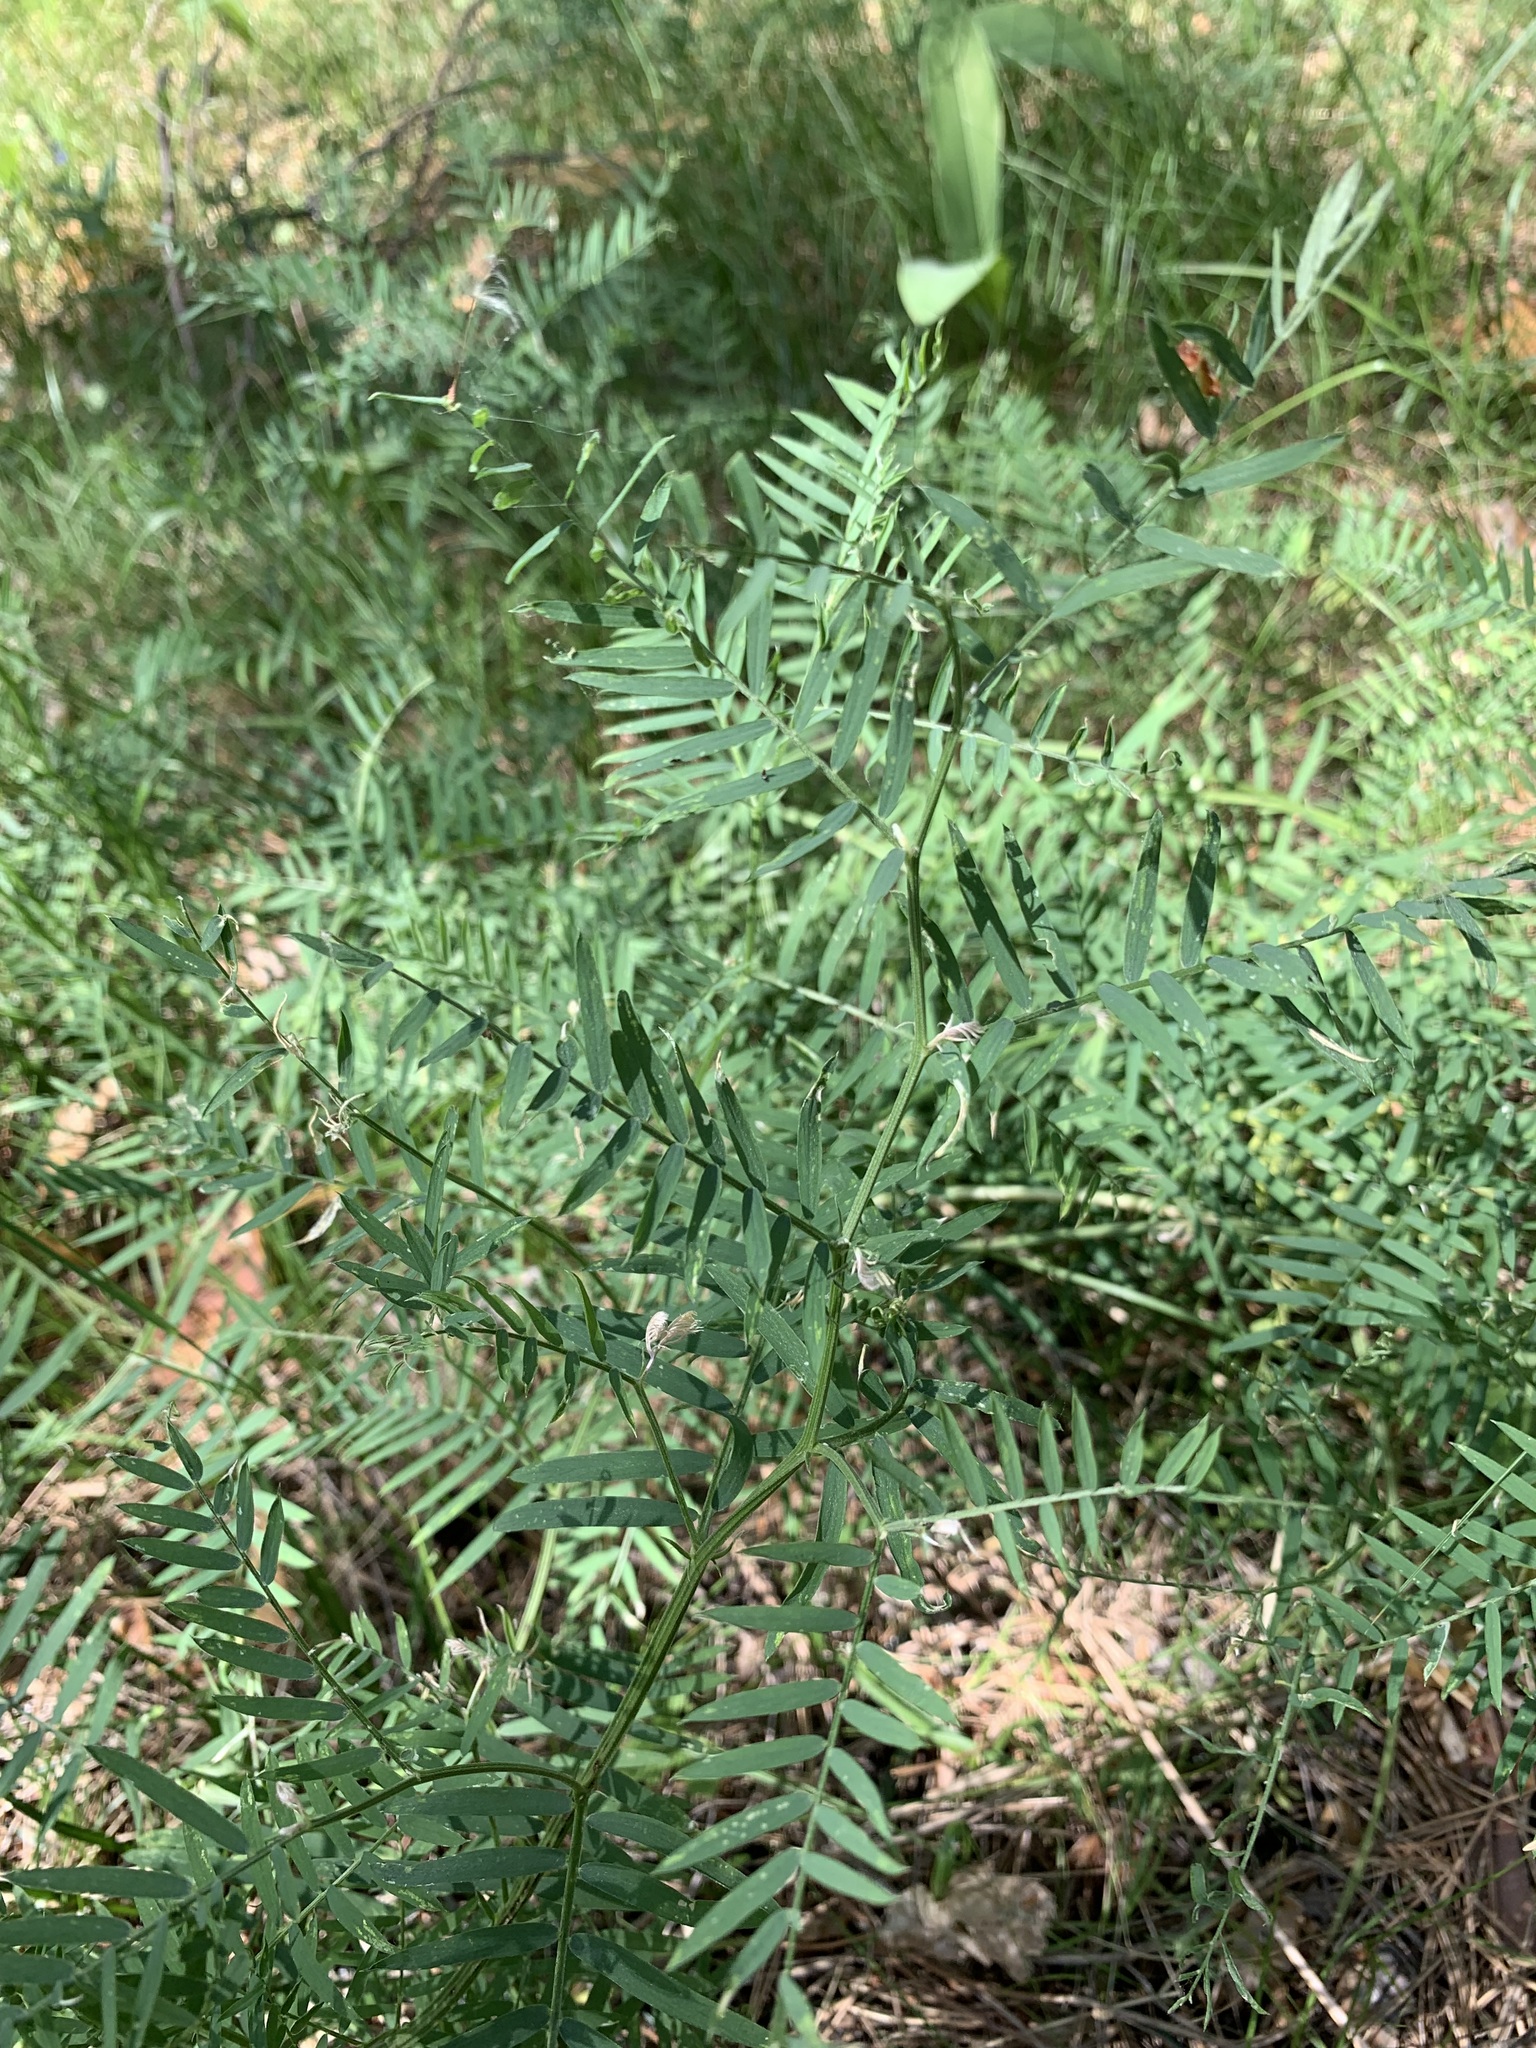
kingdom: Plantae
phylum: Tracheophyta
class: Magnoliopsida
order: Fabales
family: Fabaceae
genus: Vicia
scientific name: Vicia tenuifolia
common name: Fine-leaved vetch
